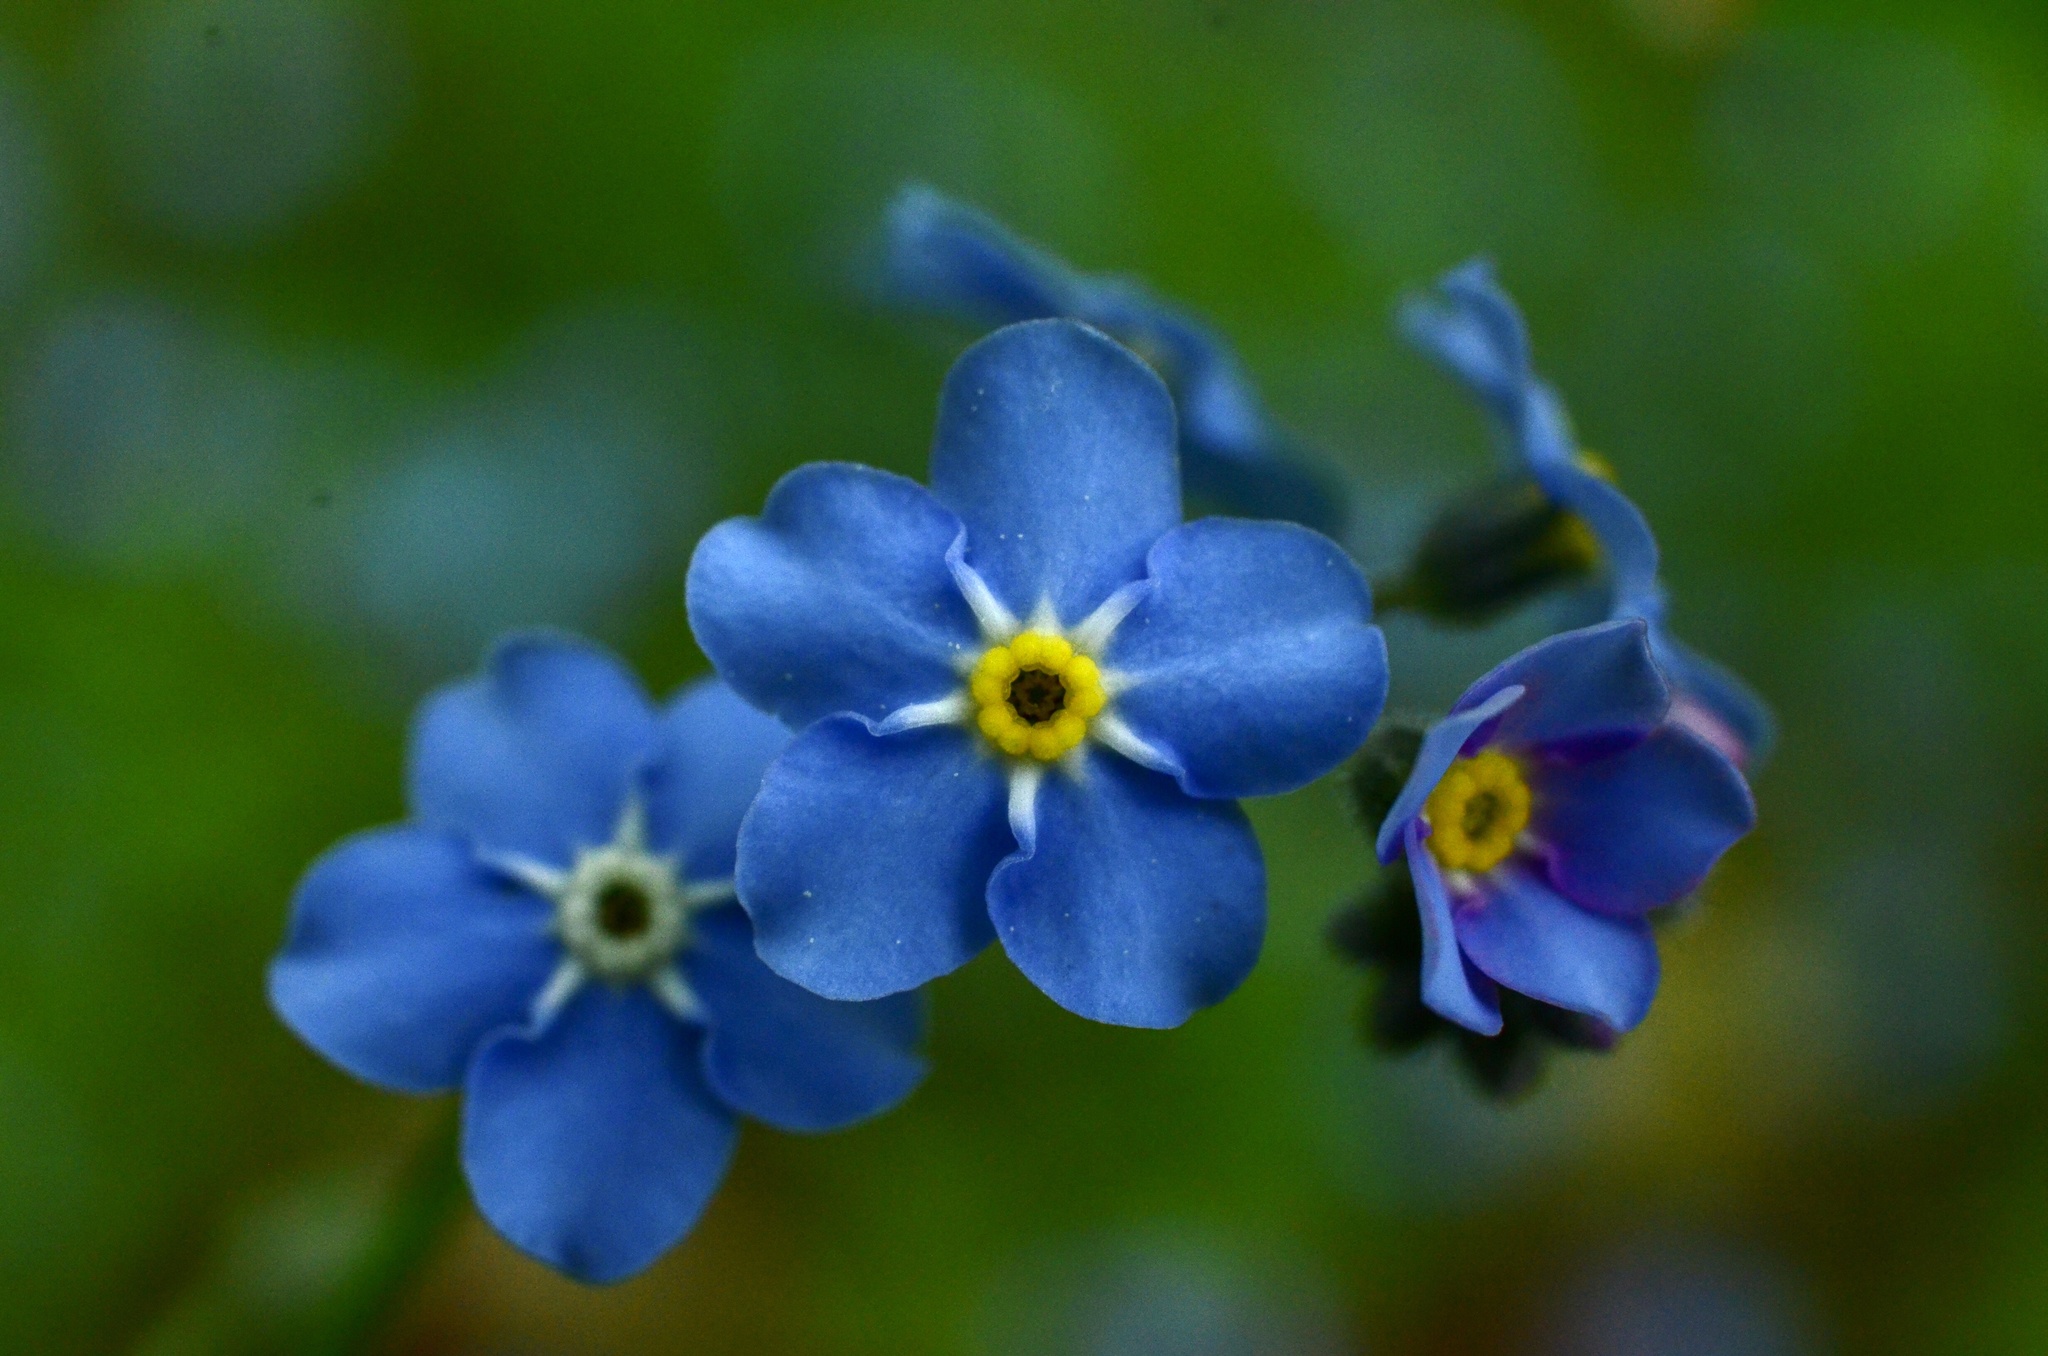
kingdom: Plantae
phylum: Tracheophyta
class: Magnoliopsida
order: Boraginales
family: Boraginaceae
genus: Myosotis
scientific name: Myosotis sylvatica
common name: Wood forget-me-not
